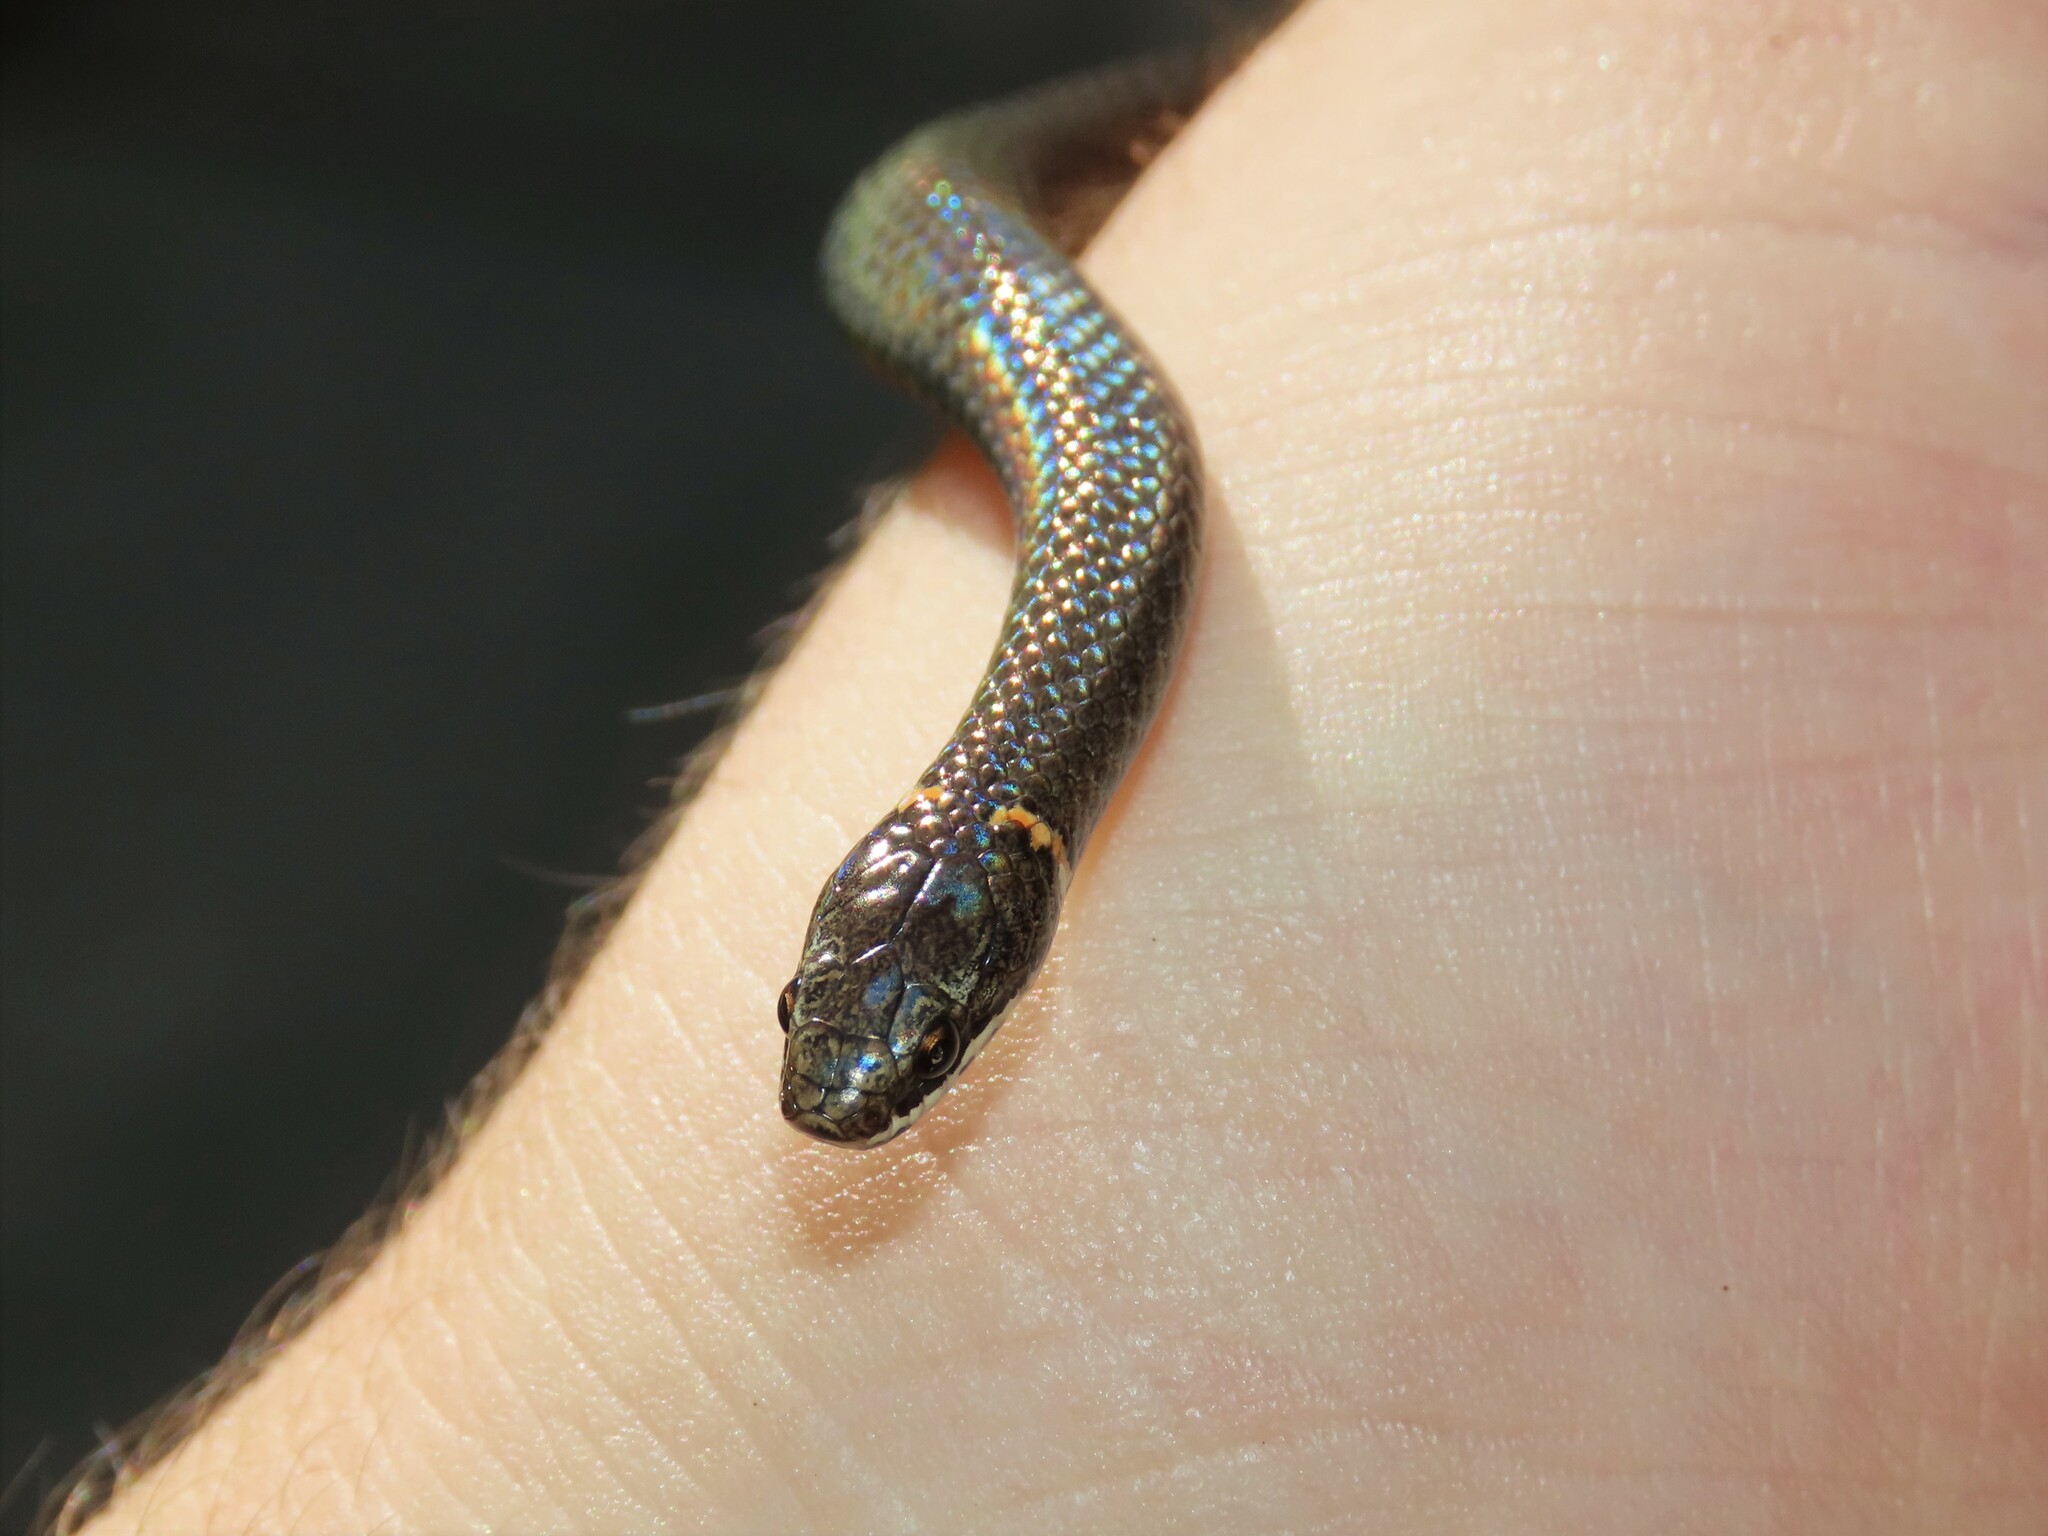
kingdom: Animalia
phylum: Chordata
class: Squamata
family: Colubridae
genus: Diadophis
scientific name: Diadophis punctatus
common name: Ringneck snake
